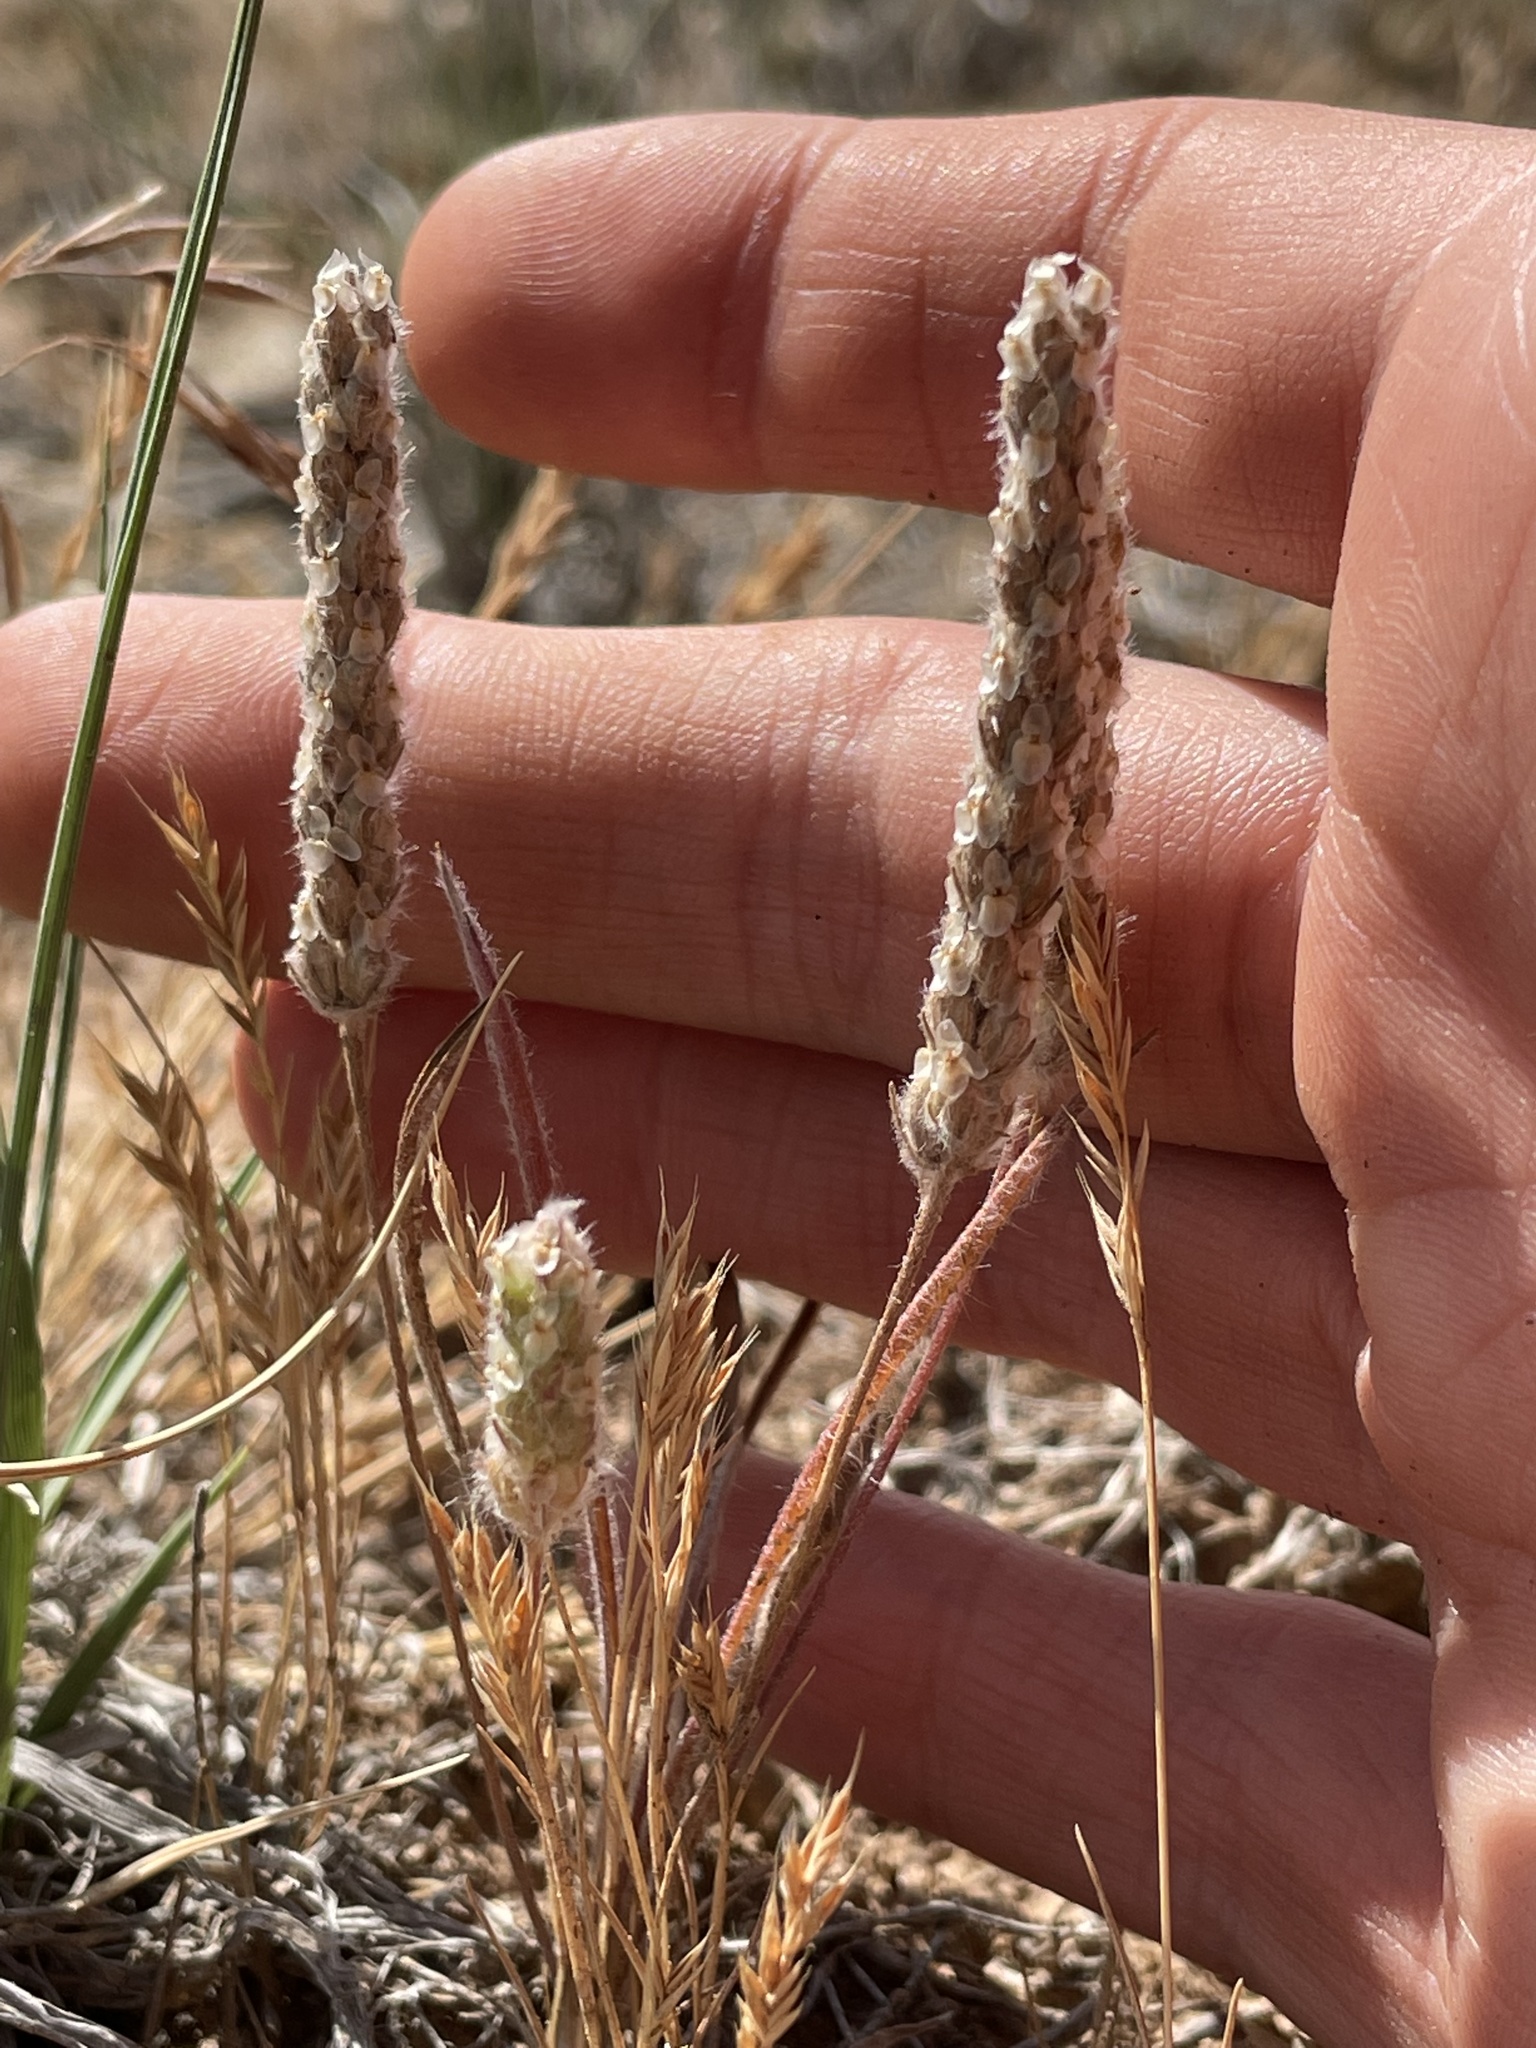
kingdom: Plantae
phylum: Tracheophyta
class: Magnoliopsida
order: Lamiales
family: Plantaginaceae
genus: Plantago
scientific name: Plantago patagonica
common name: Patagonia indian-wheat
